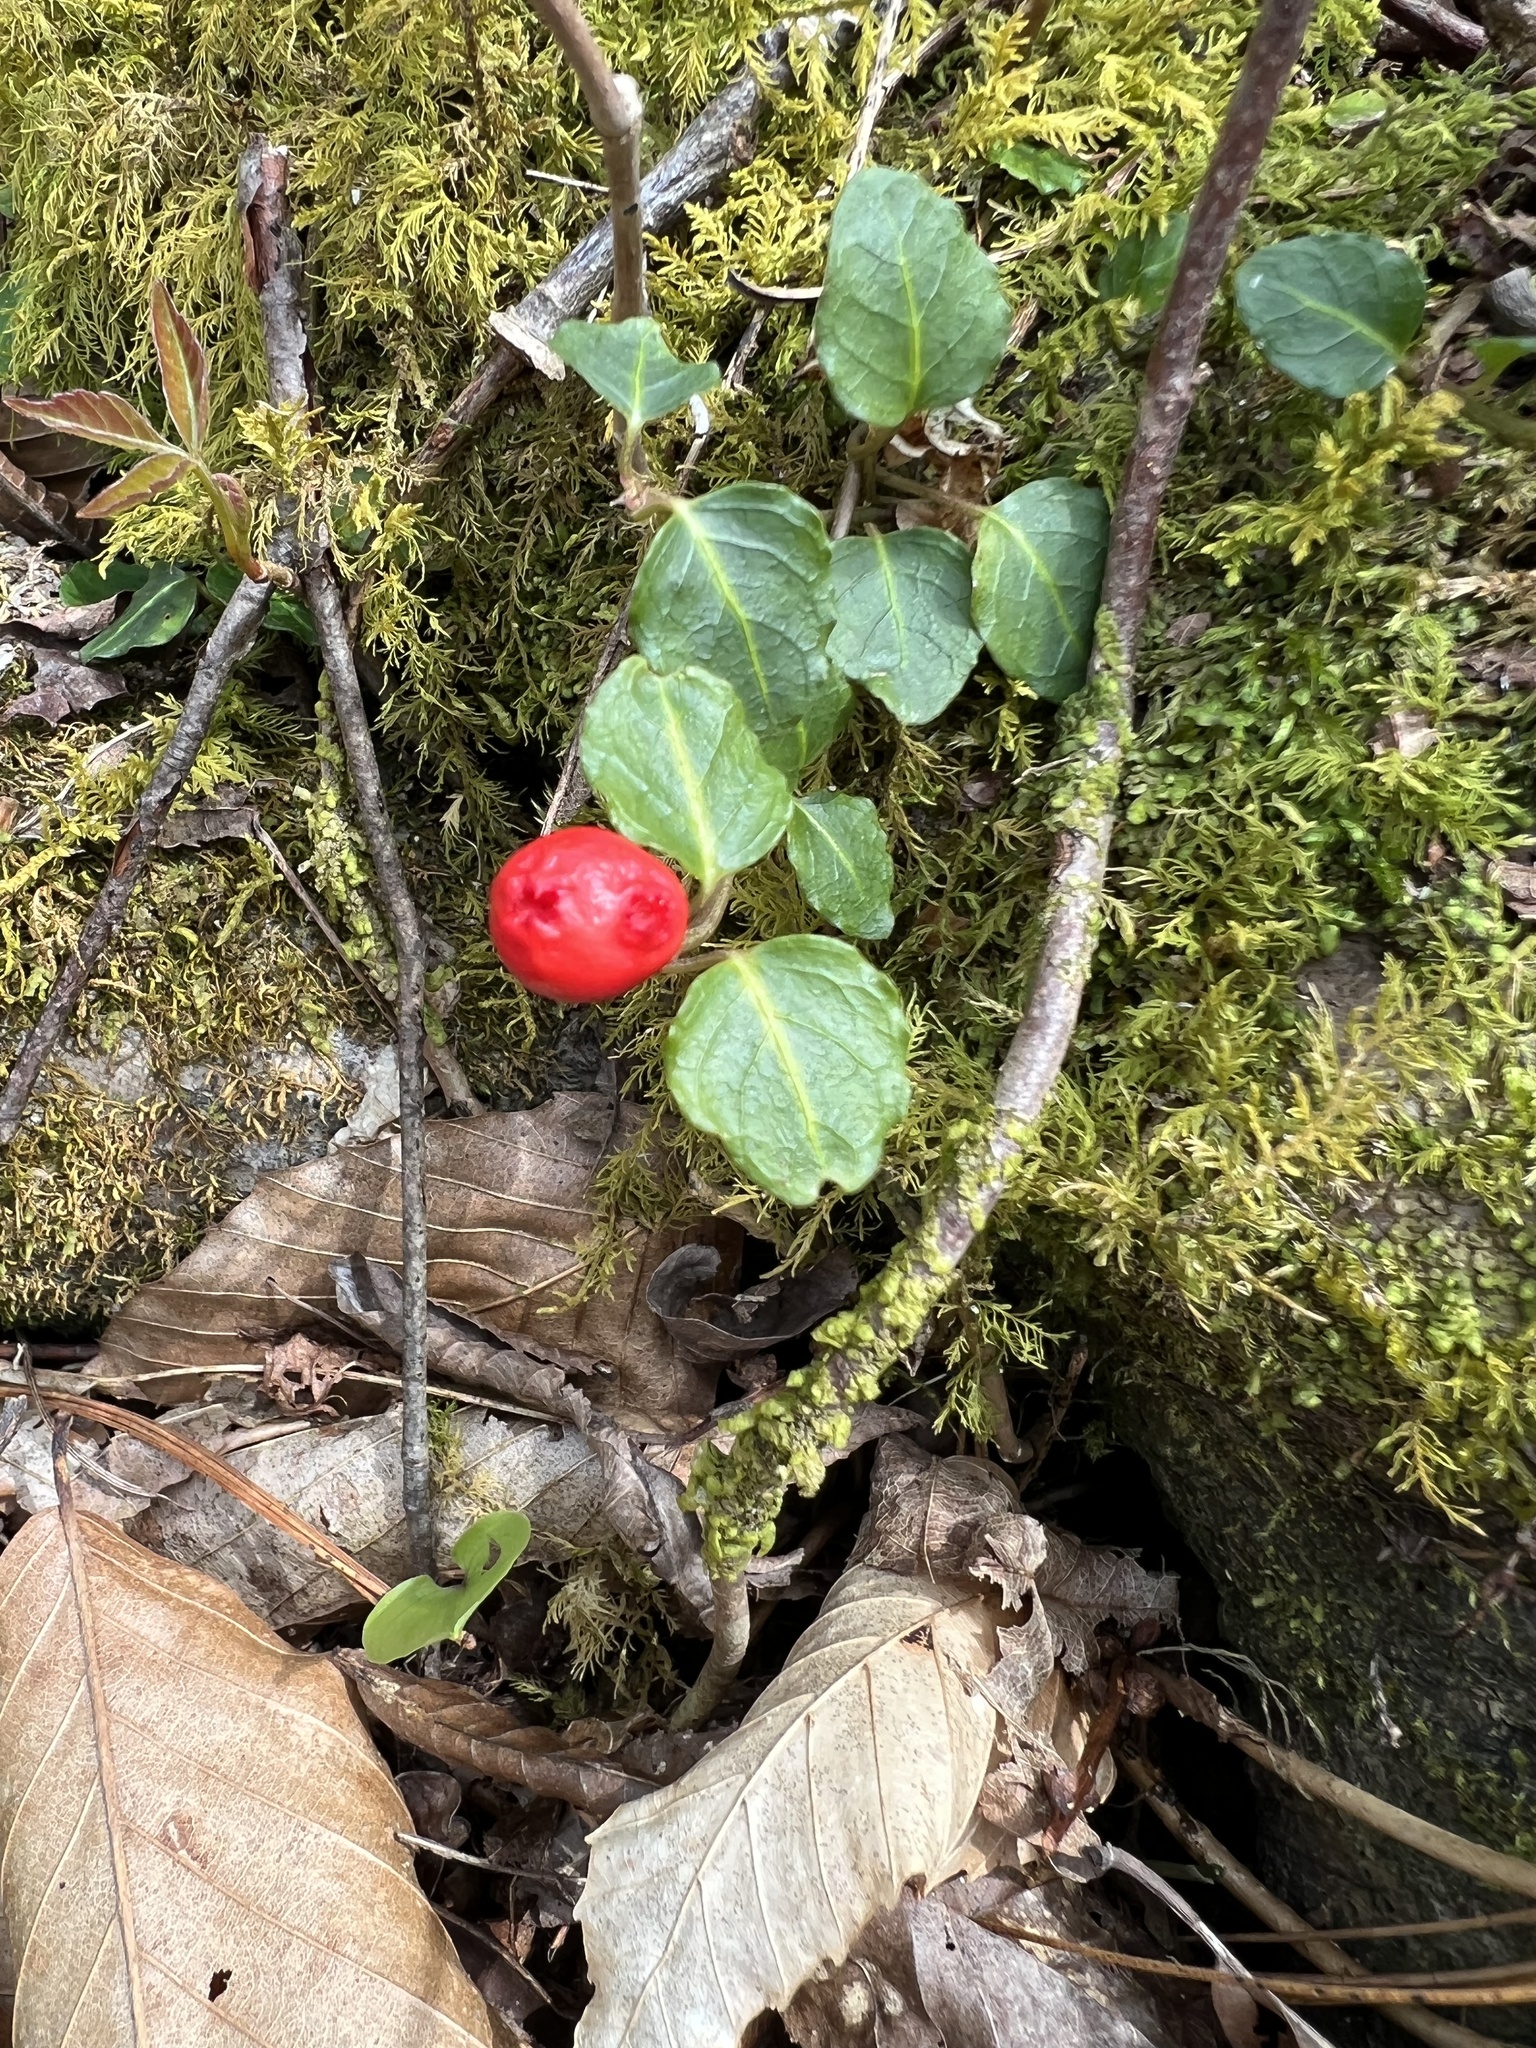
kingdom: Plantae
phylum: Tracheophyta
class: Magnoliopsida
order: Gentianales
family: Rubiaceae
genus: Mitchella
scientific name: Mitchella repens
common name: Partridge-berry
